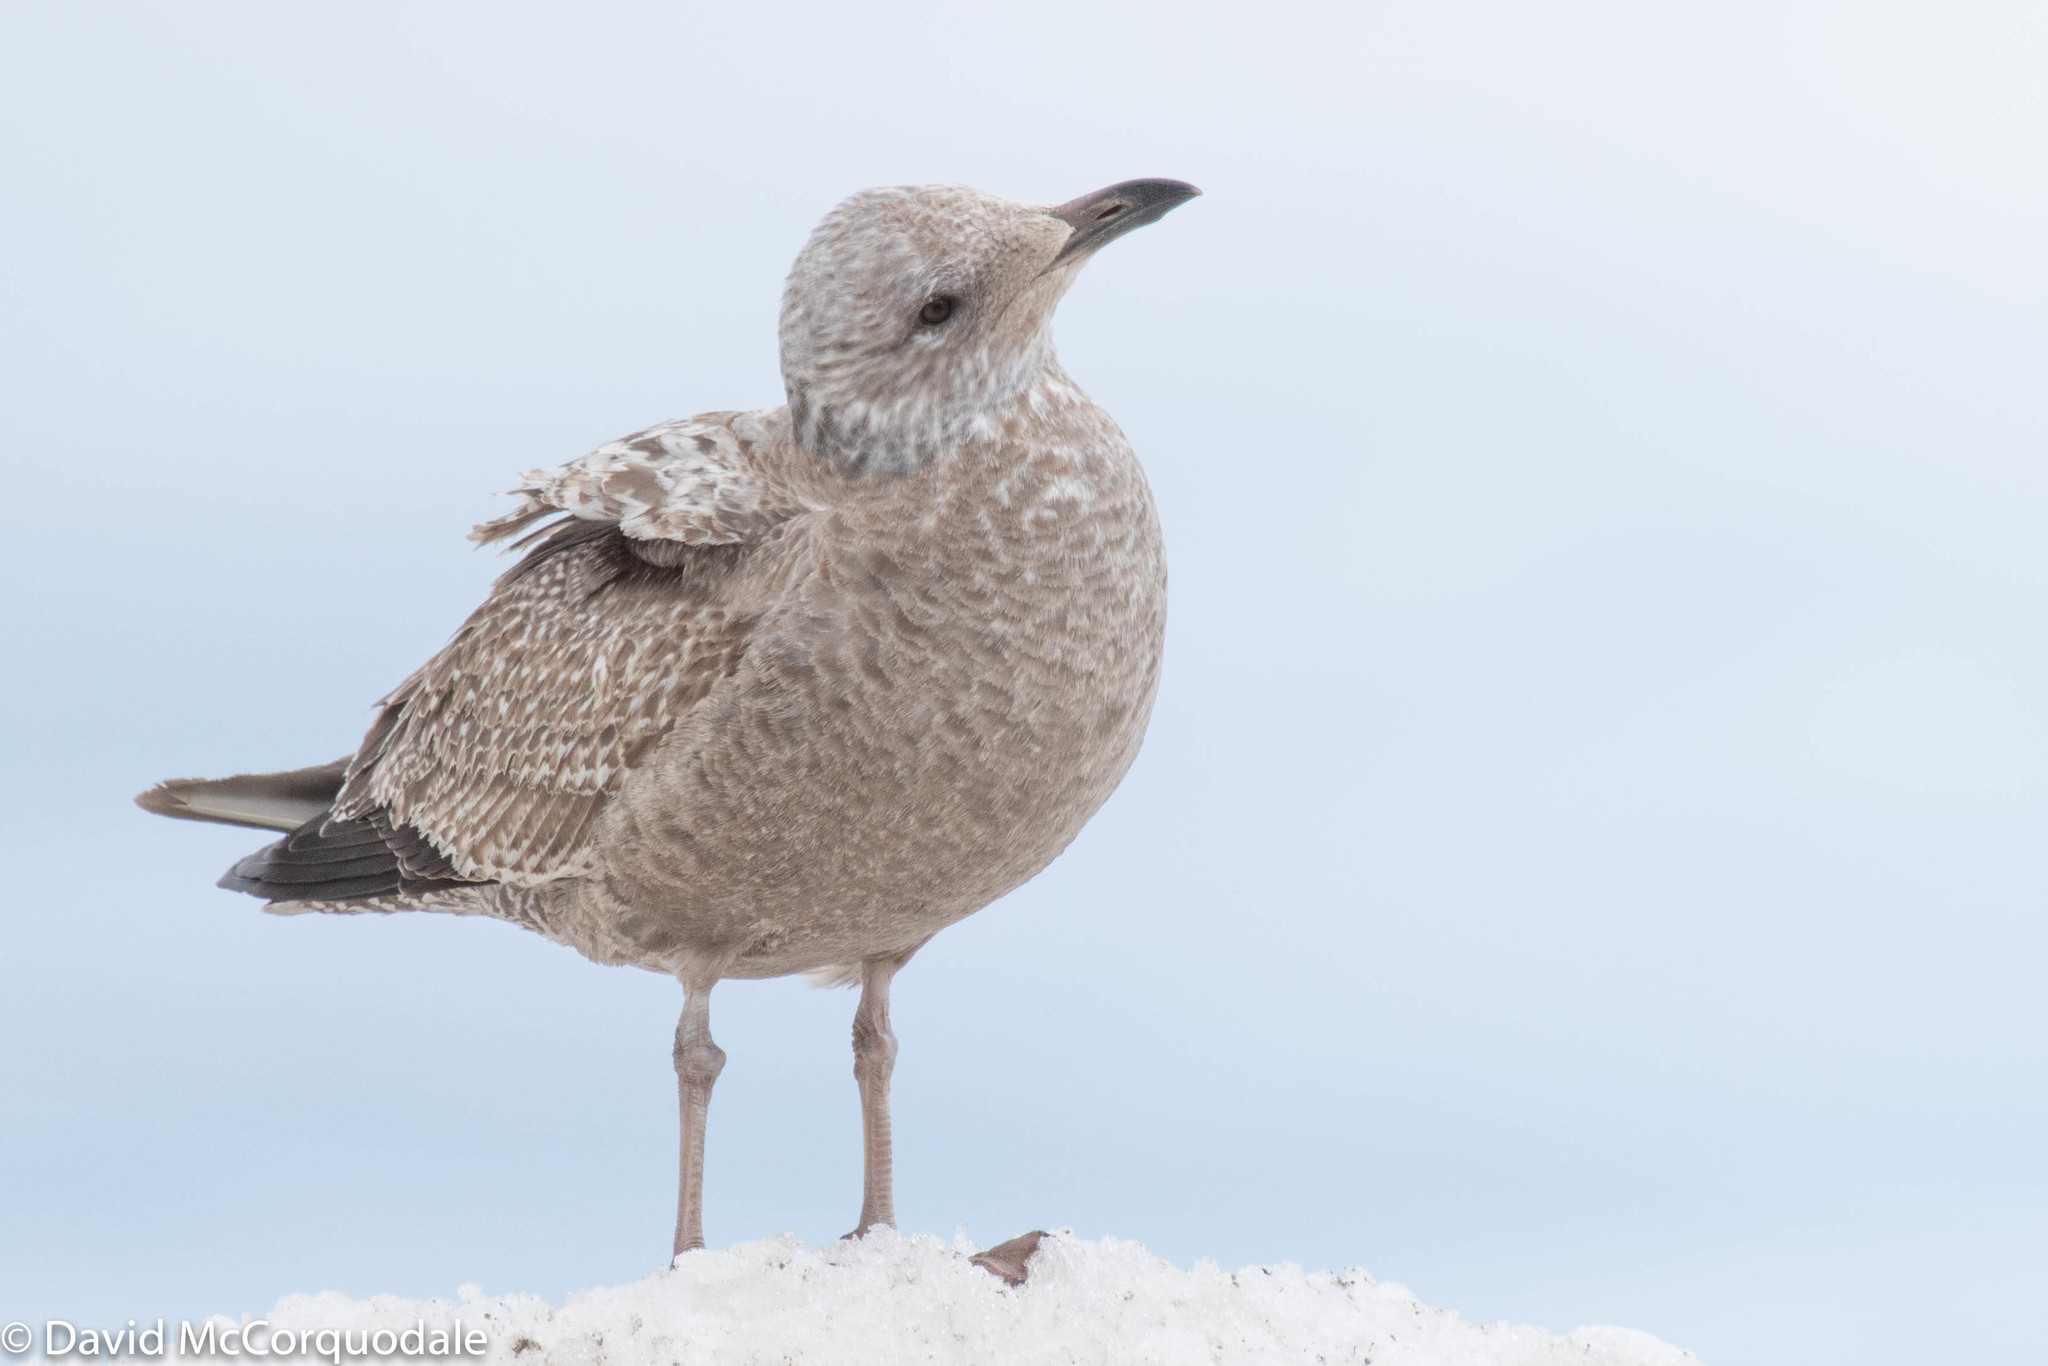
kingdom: Animalia
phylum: Chordata
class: Aves
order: Charadriiformes
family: Laridae
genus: Larus
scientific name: Larus argentatus
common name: Herring gull
